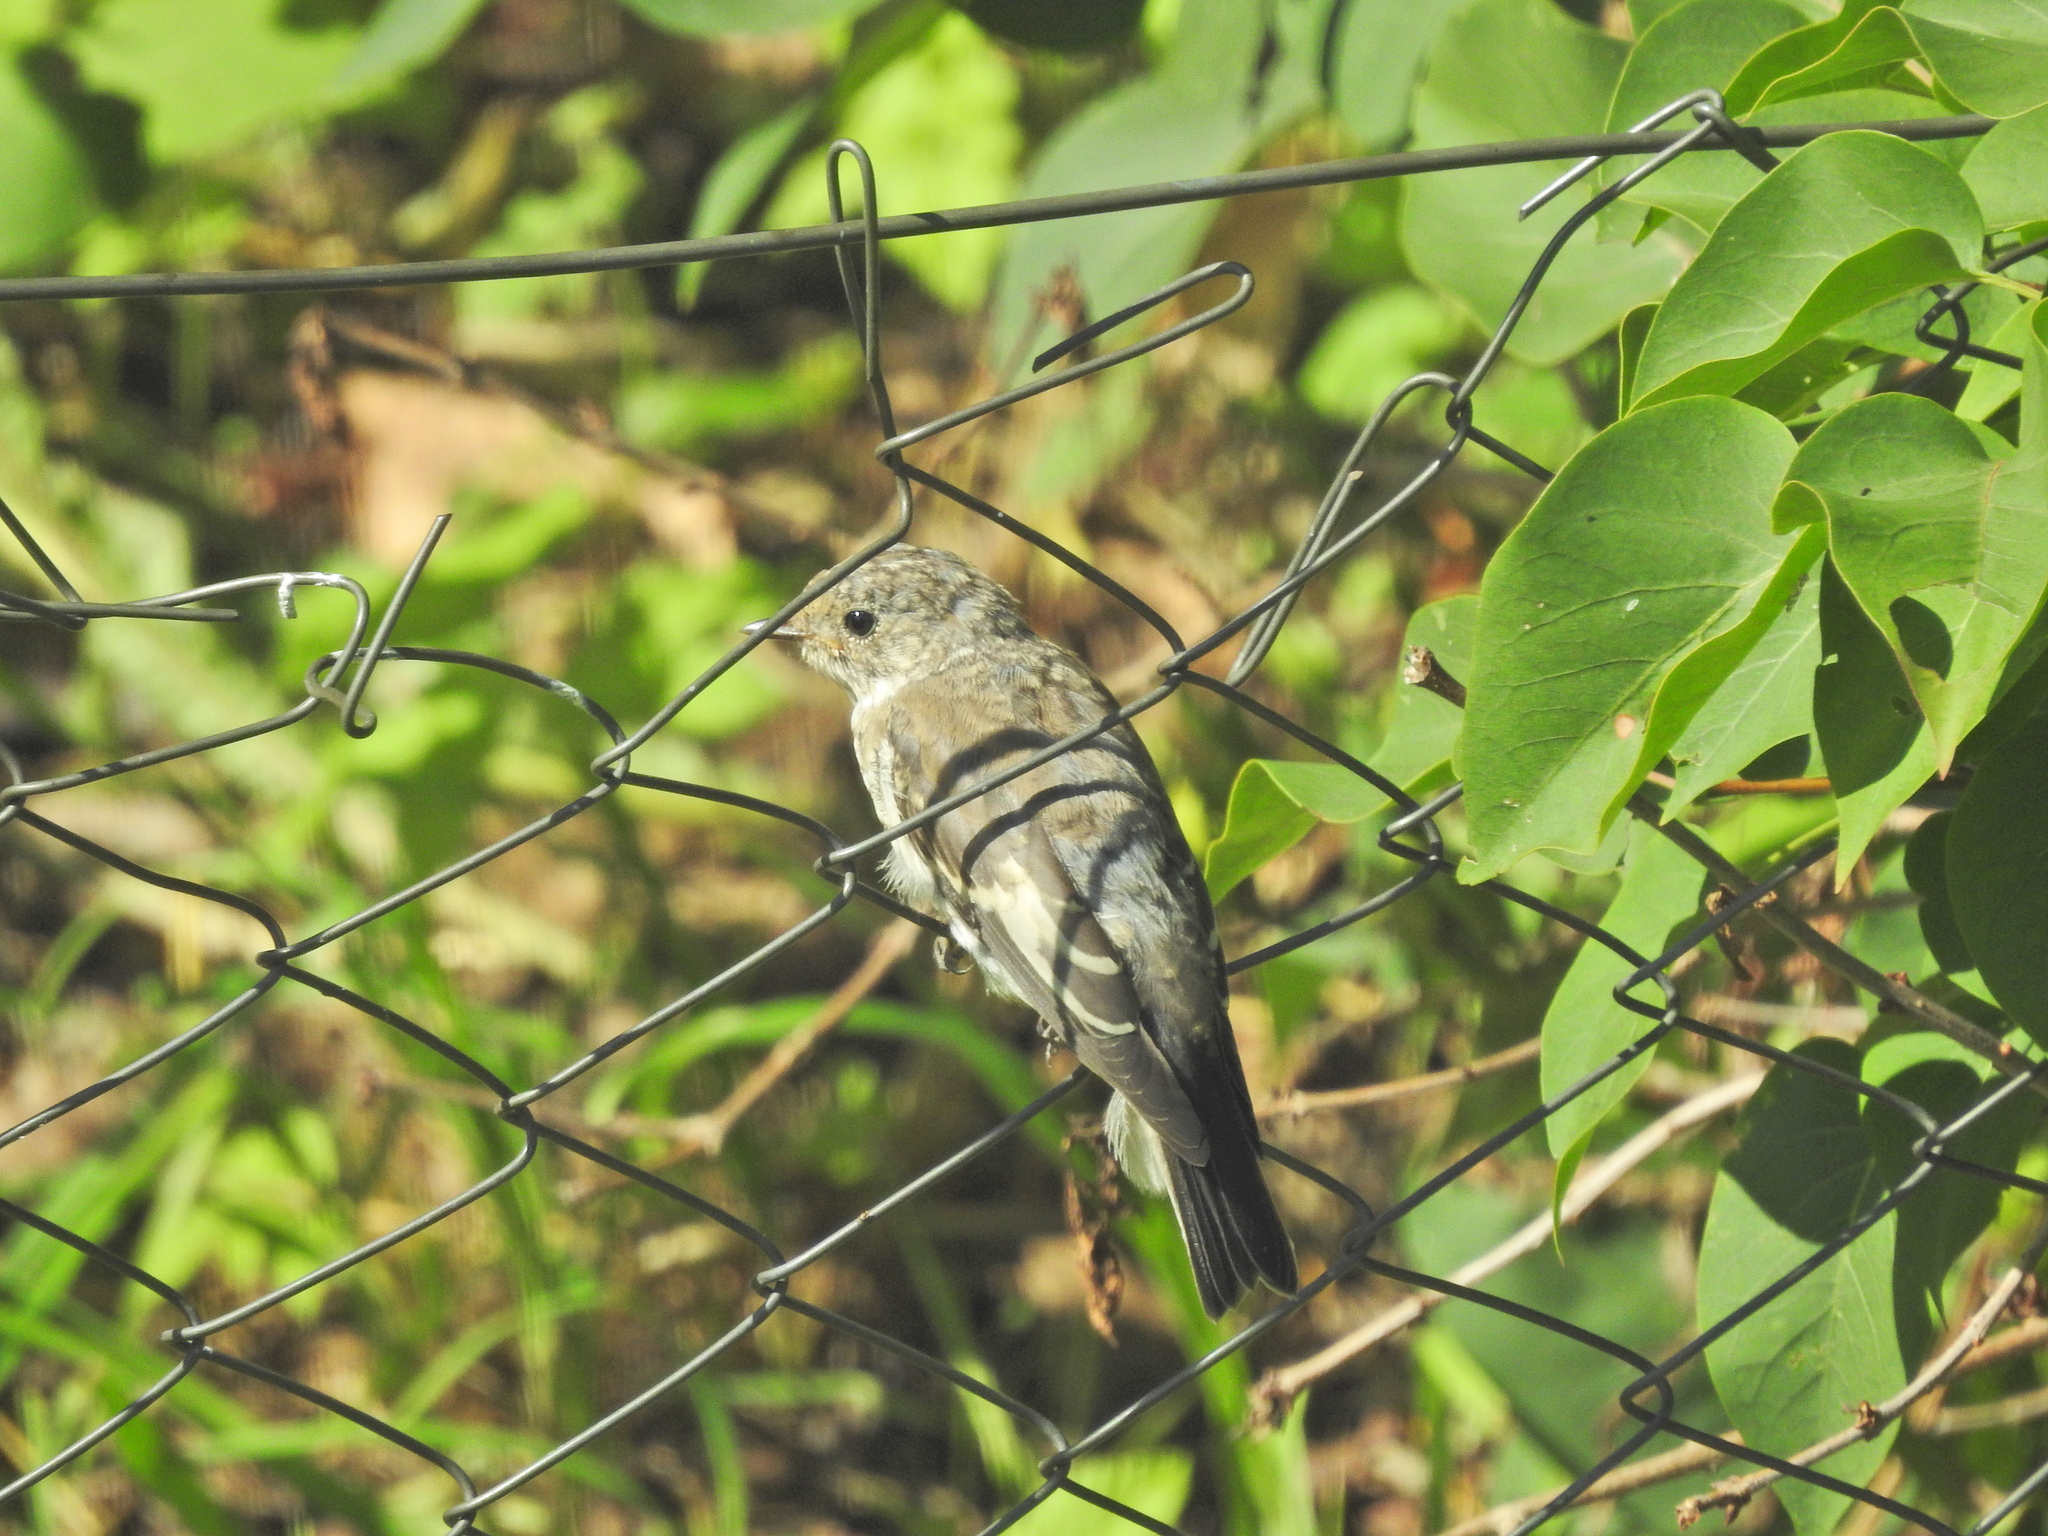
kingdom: Animalia
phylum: Chordata
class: Aves
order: Passeriformes
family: Muscicapidae
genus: Muscicapa
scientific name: Muscicapa striata
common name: Spotted flycatcher
